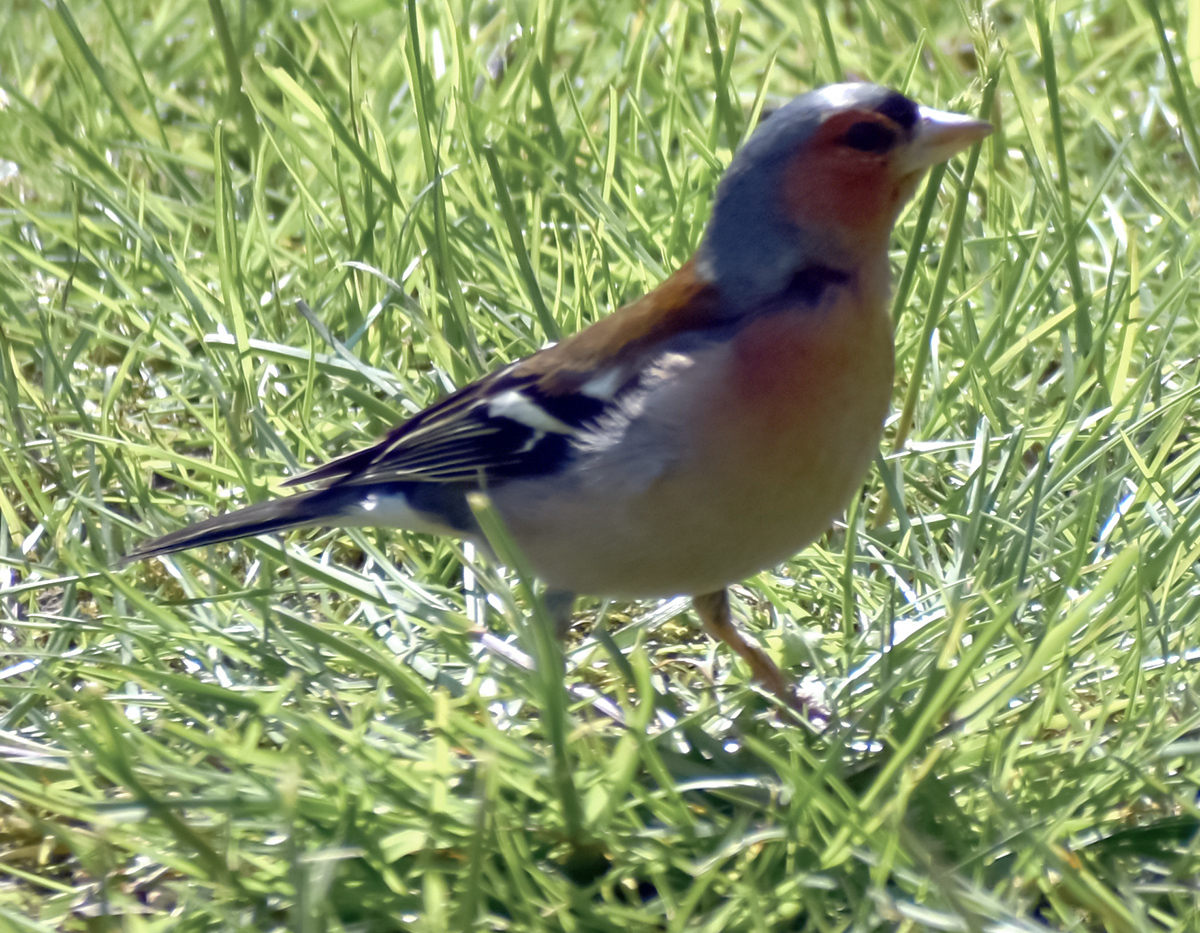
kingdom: Animalia
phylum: Chordata
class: Aves
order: Passeriformes
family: Fringillidae
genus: Fringilla
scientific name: Fringilla coelebs
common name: Common chaffinch
